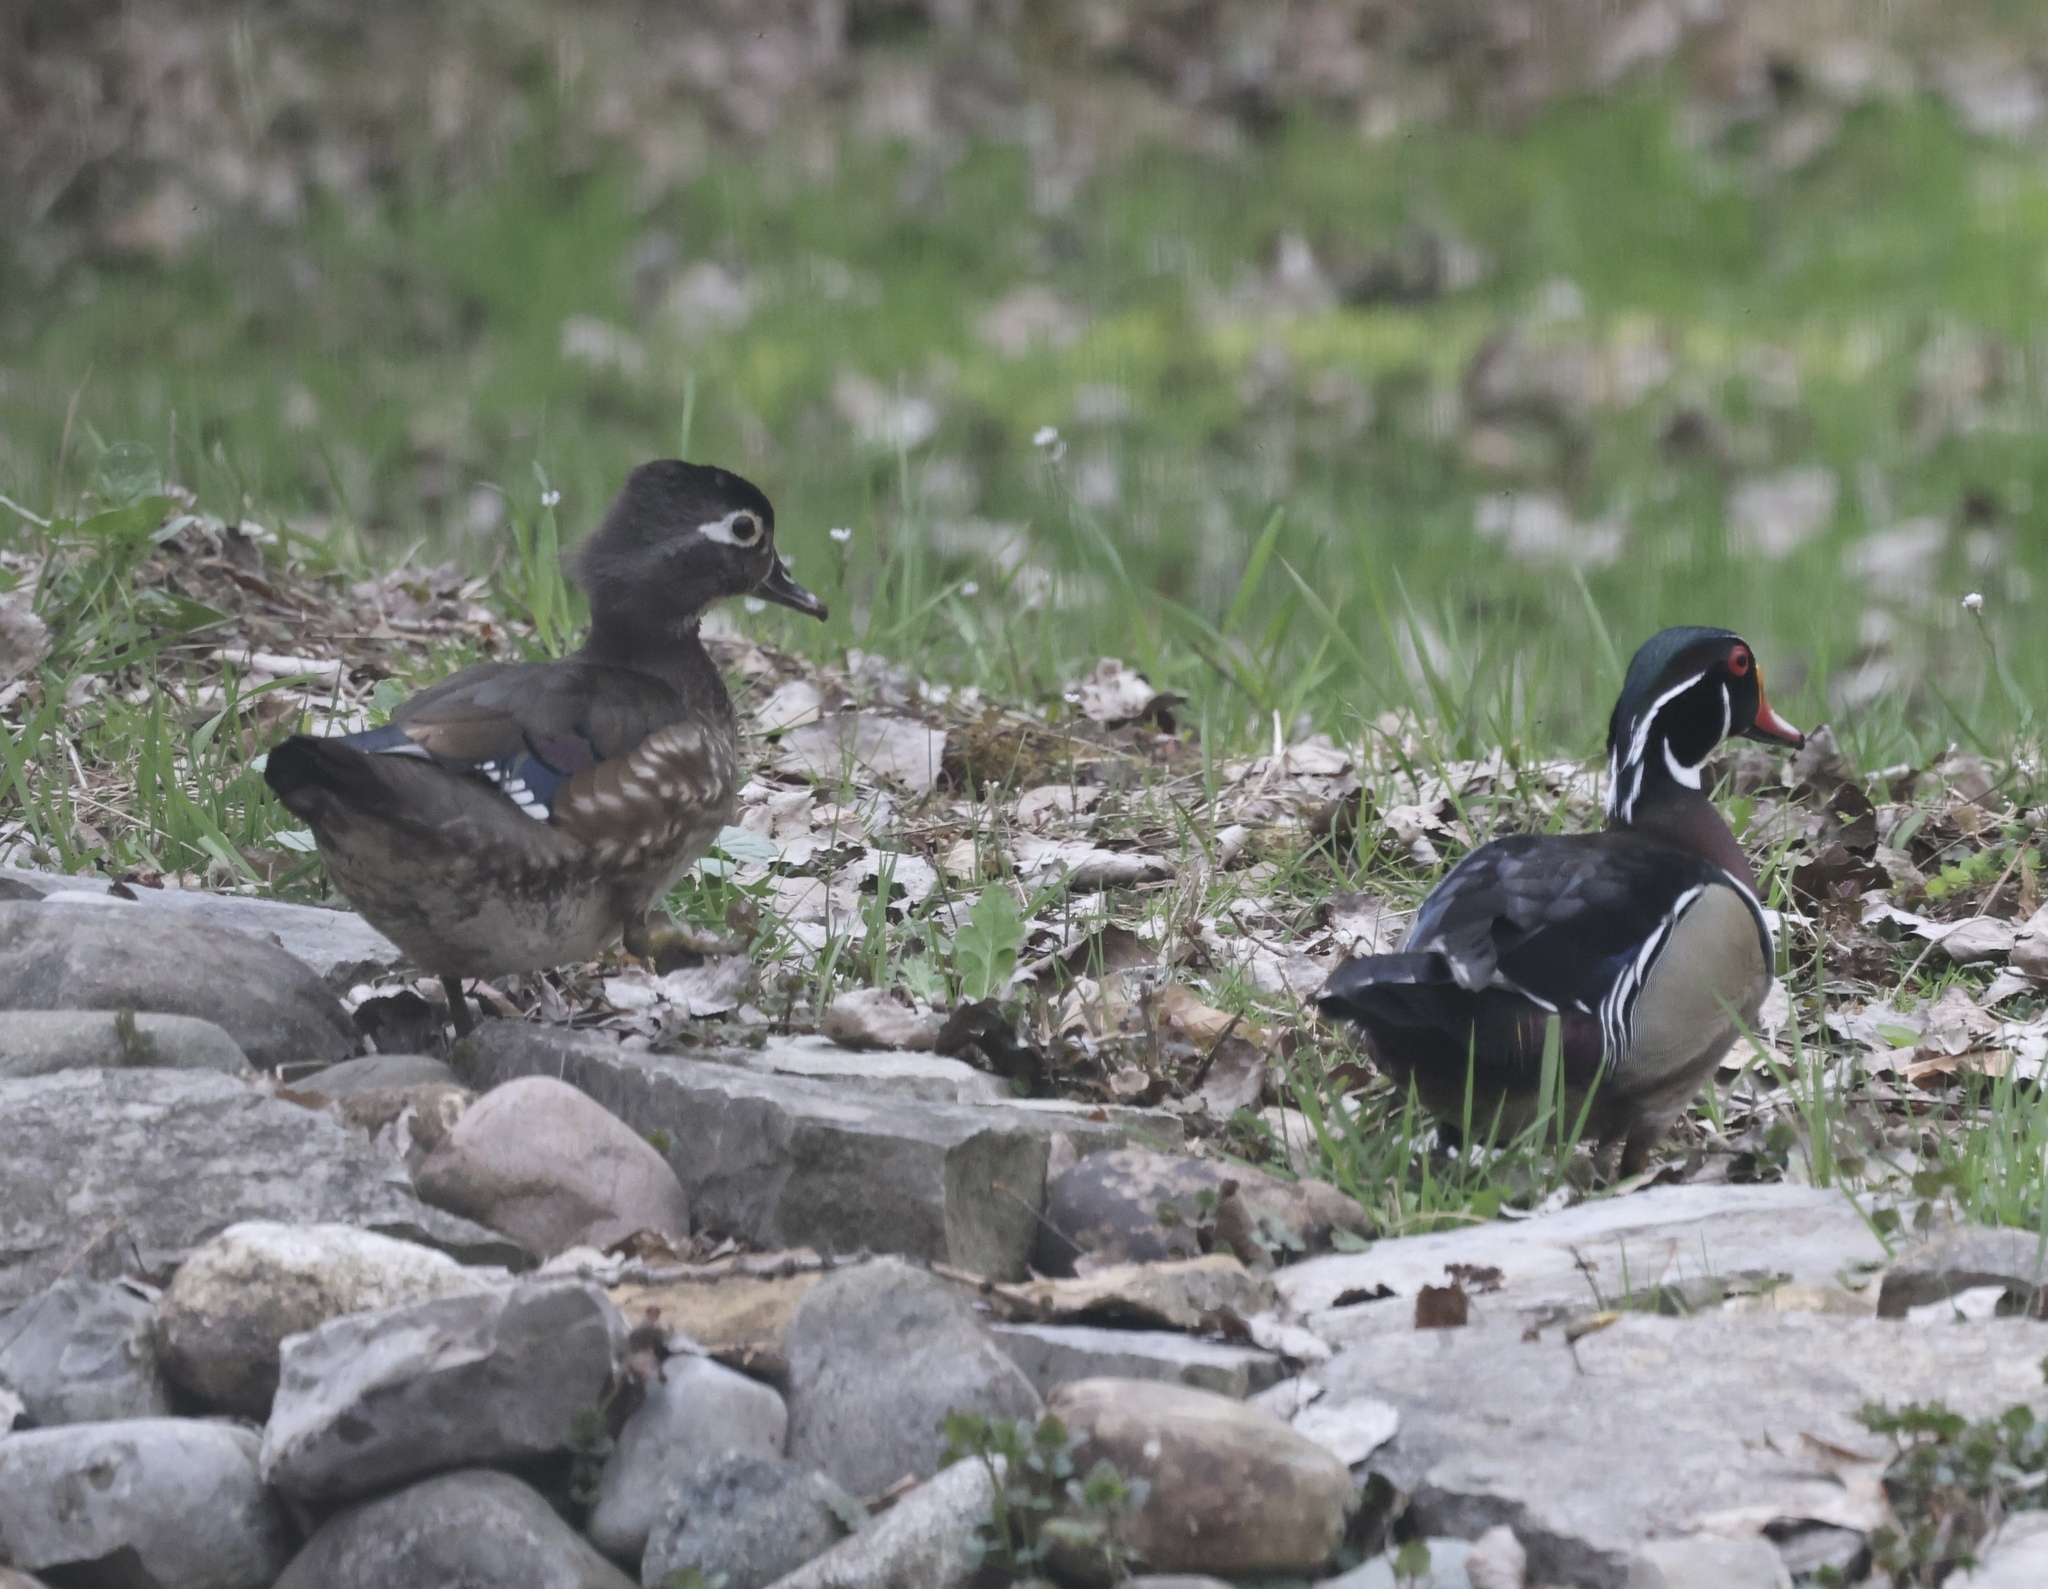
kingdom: Animalia
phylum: Chordata
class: Aves
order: Anseriformes
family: Anatidae
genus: Aix
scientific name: Aix sponsa
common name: Wood duck
